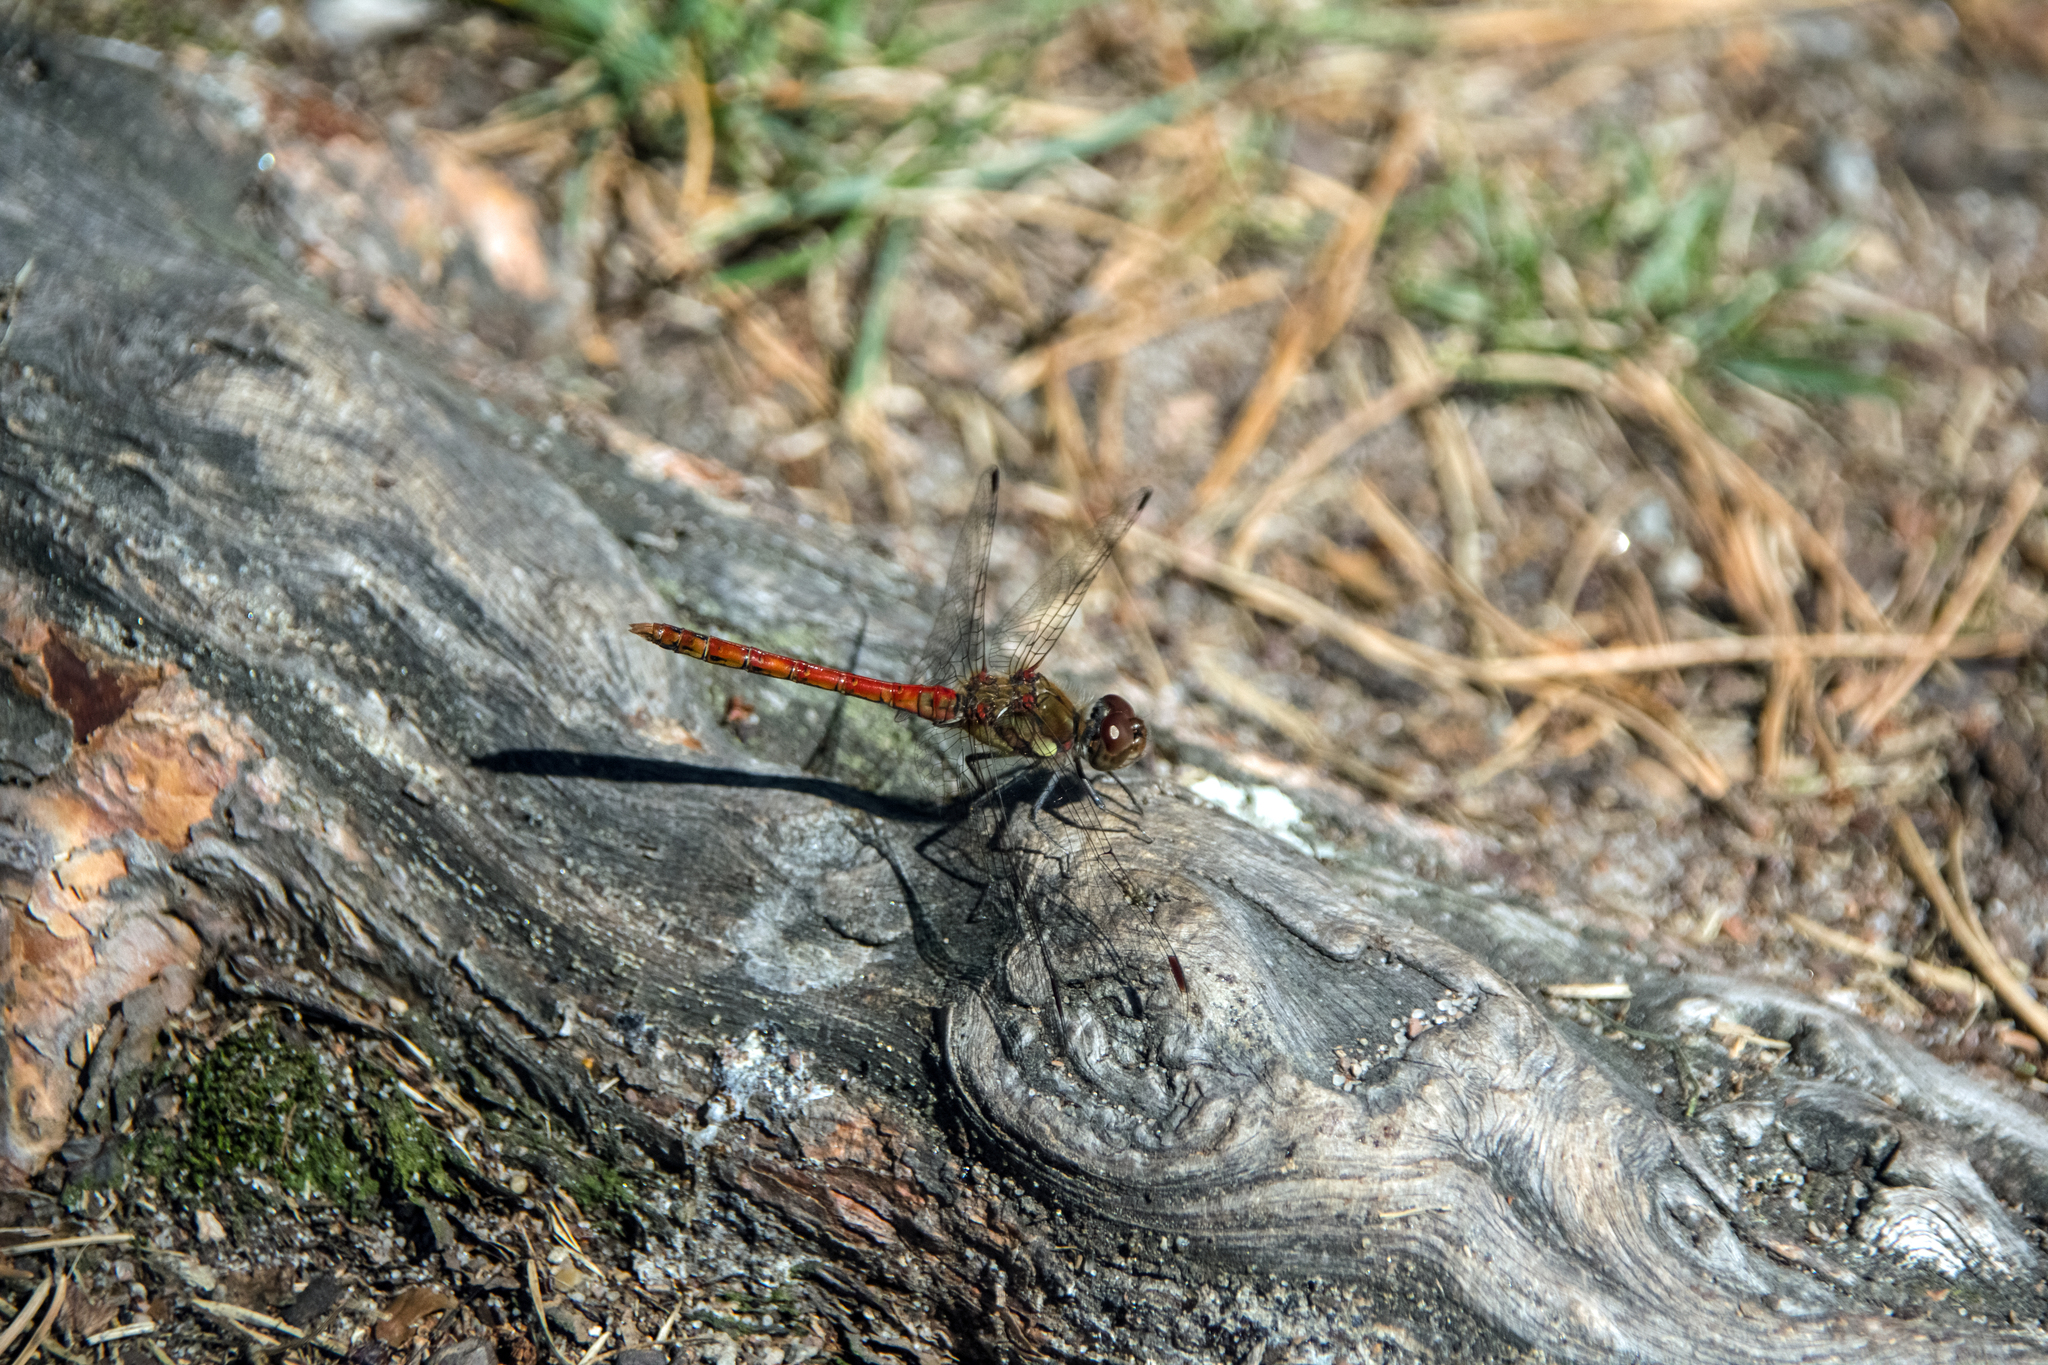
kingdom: Animalia
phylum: Arthropoda
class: Insecta
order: Odonata
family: Libellulidae
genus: Sympetrum
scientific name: Sympetrum striolatum
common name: Common darter
